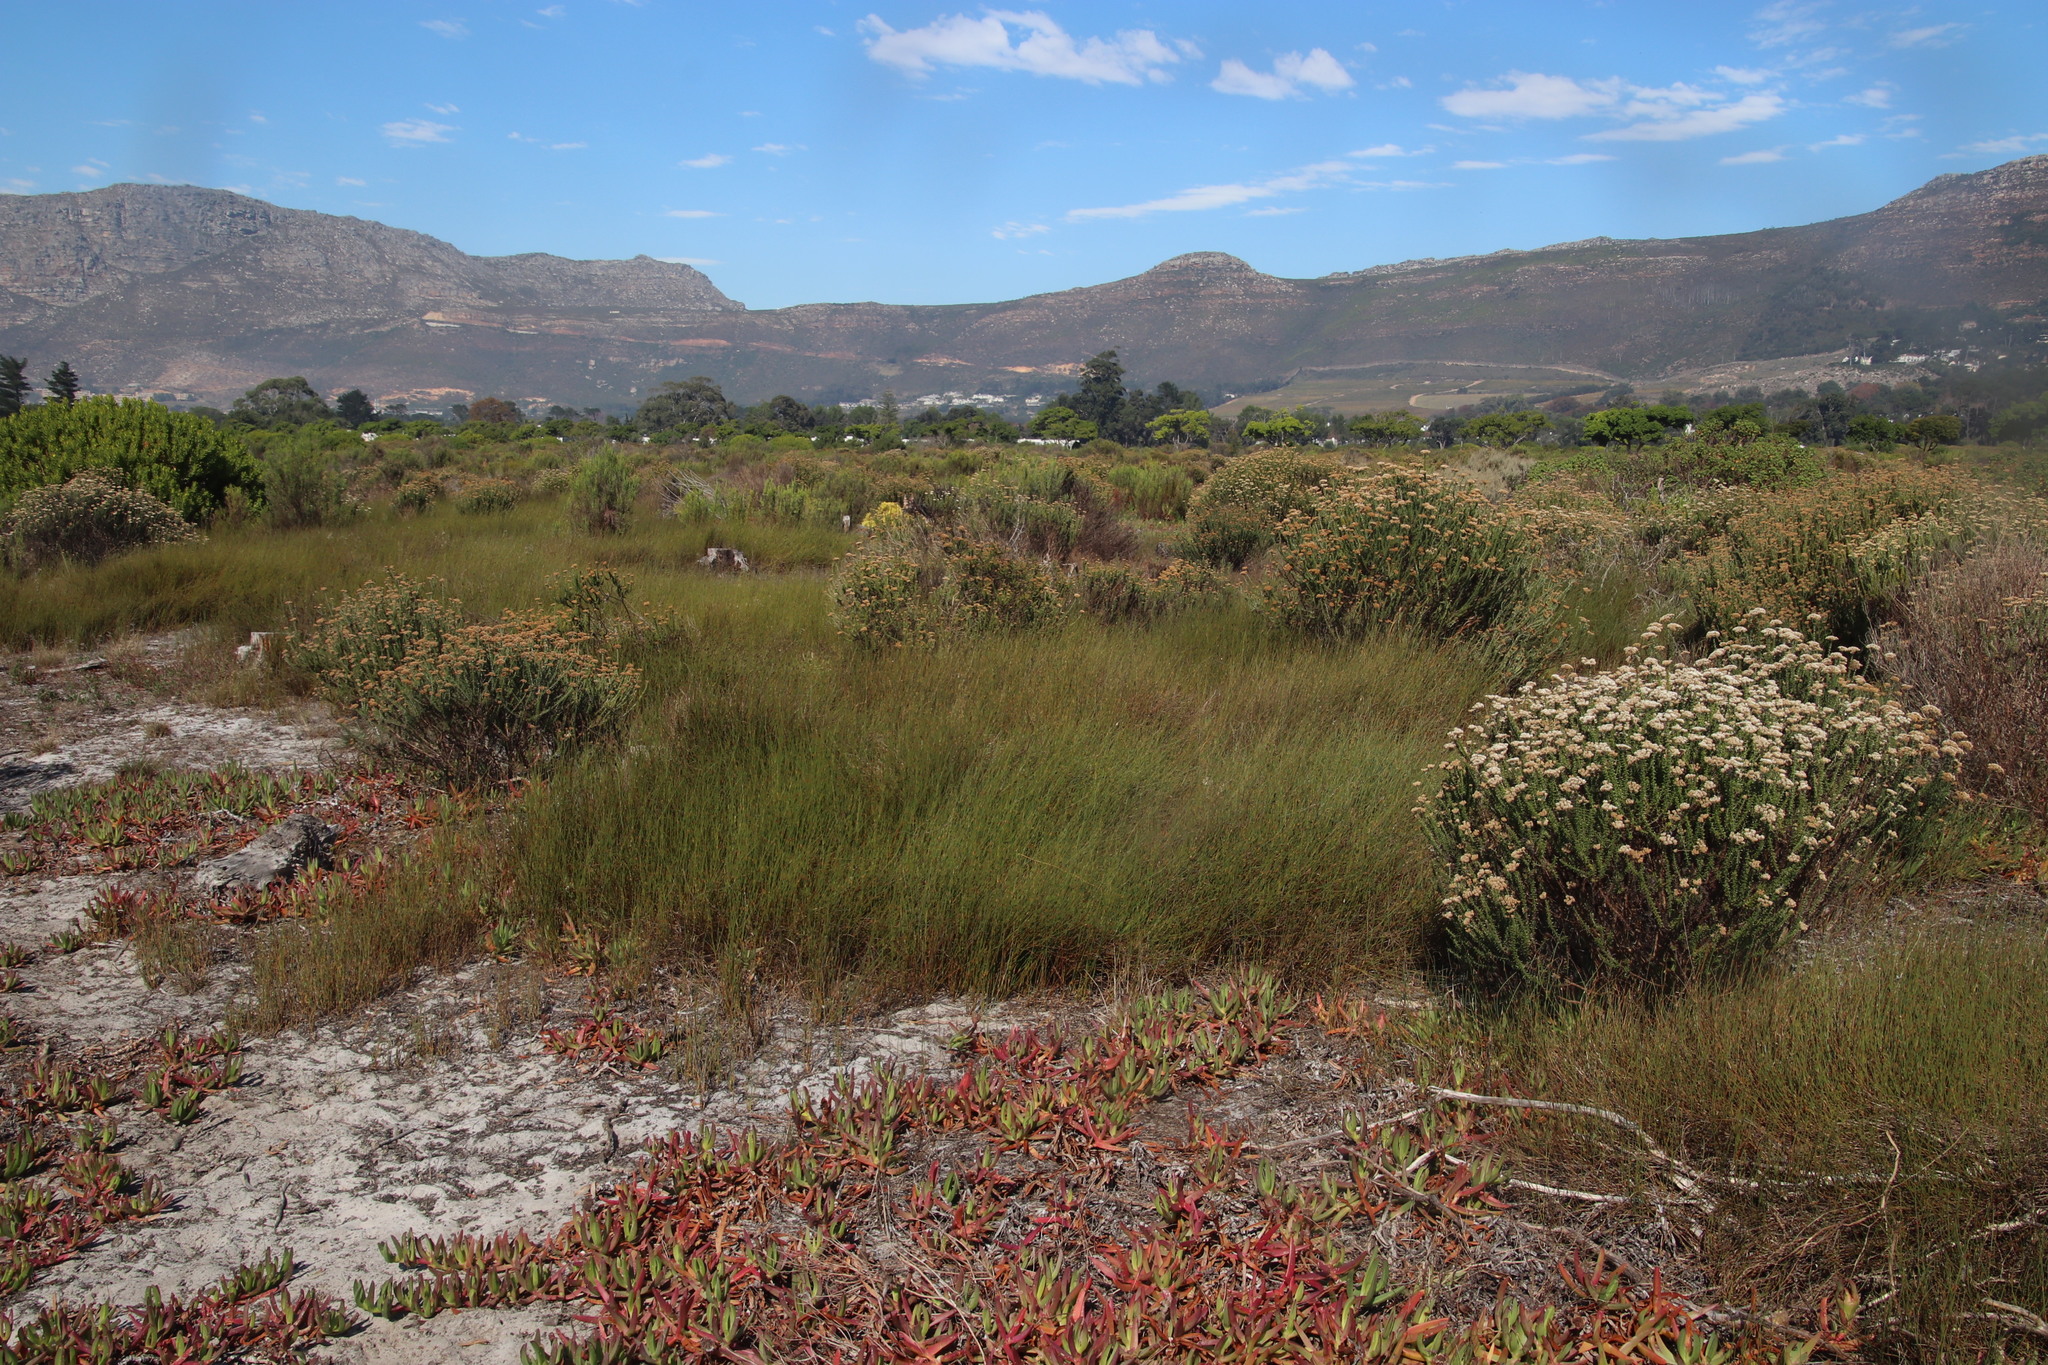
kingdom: Plantae
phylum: Tracheophyta
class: Liliopsida
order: Poales
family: Restionaceae
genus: Willdenowia
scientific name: Willdenowia sulcata
